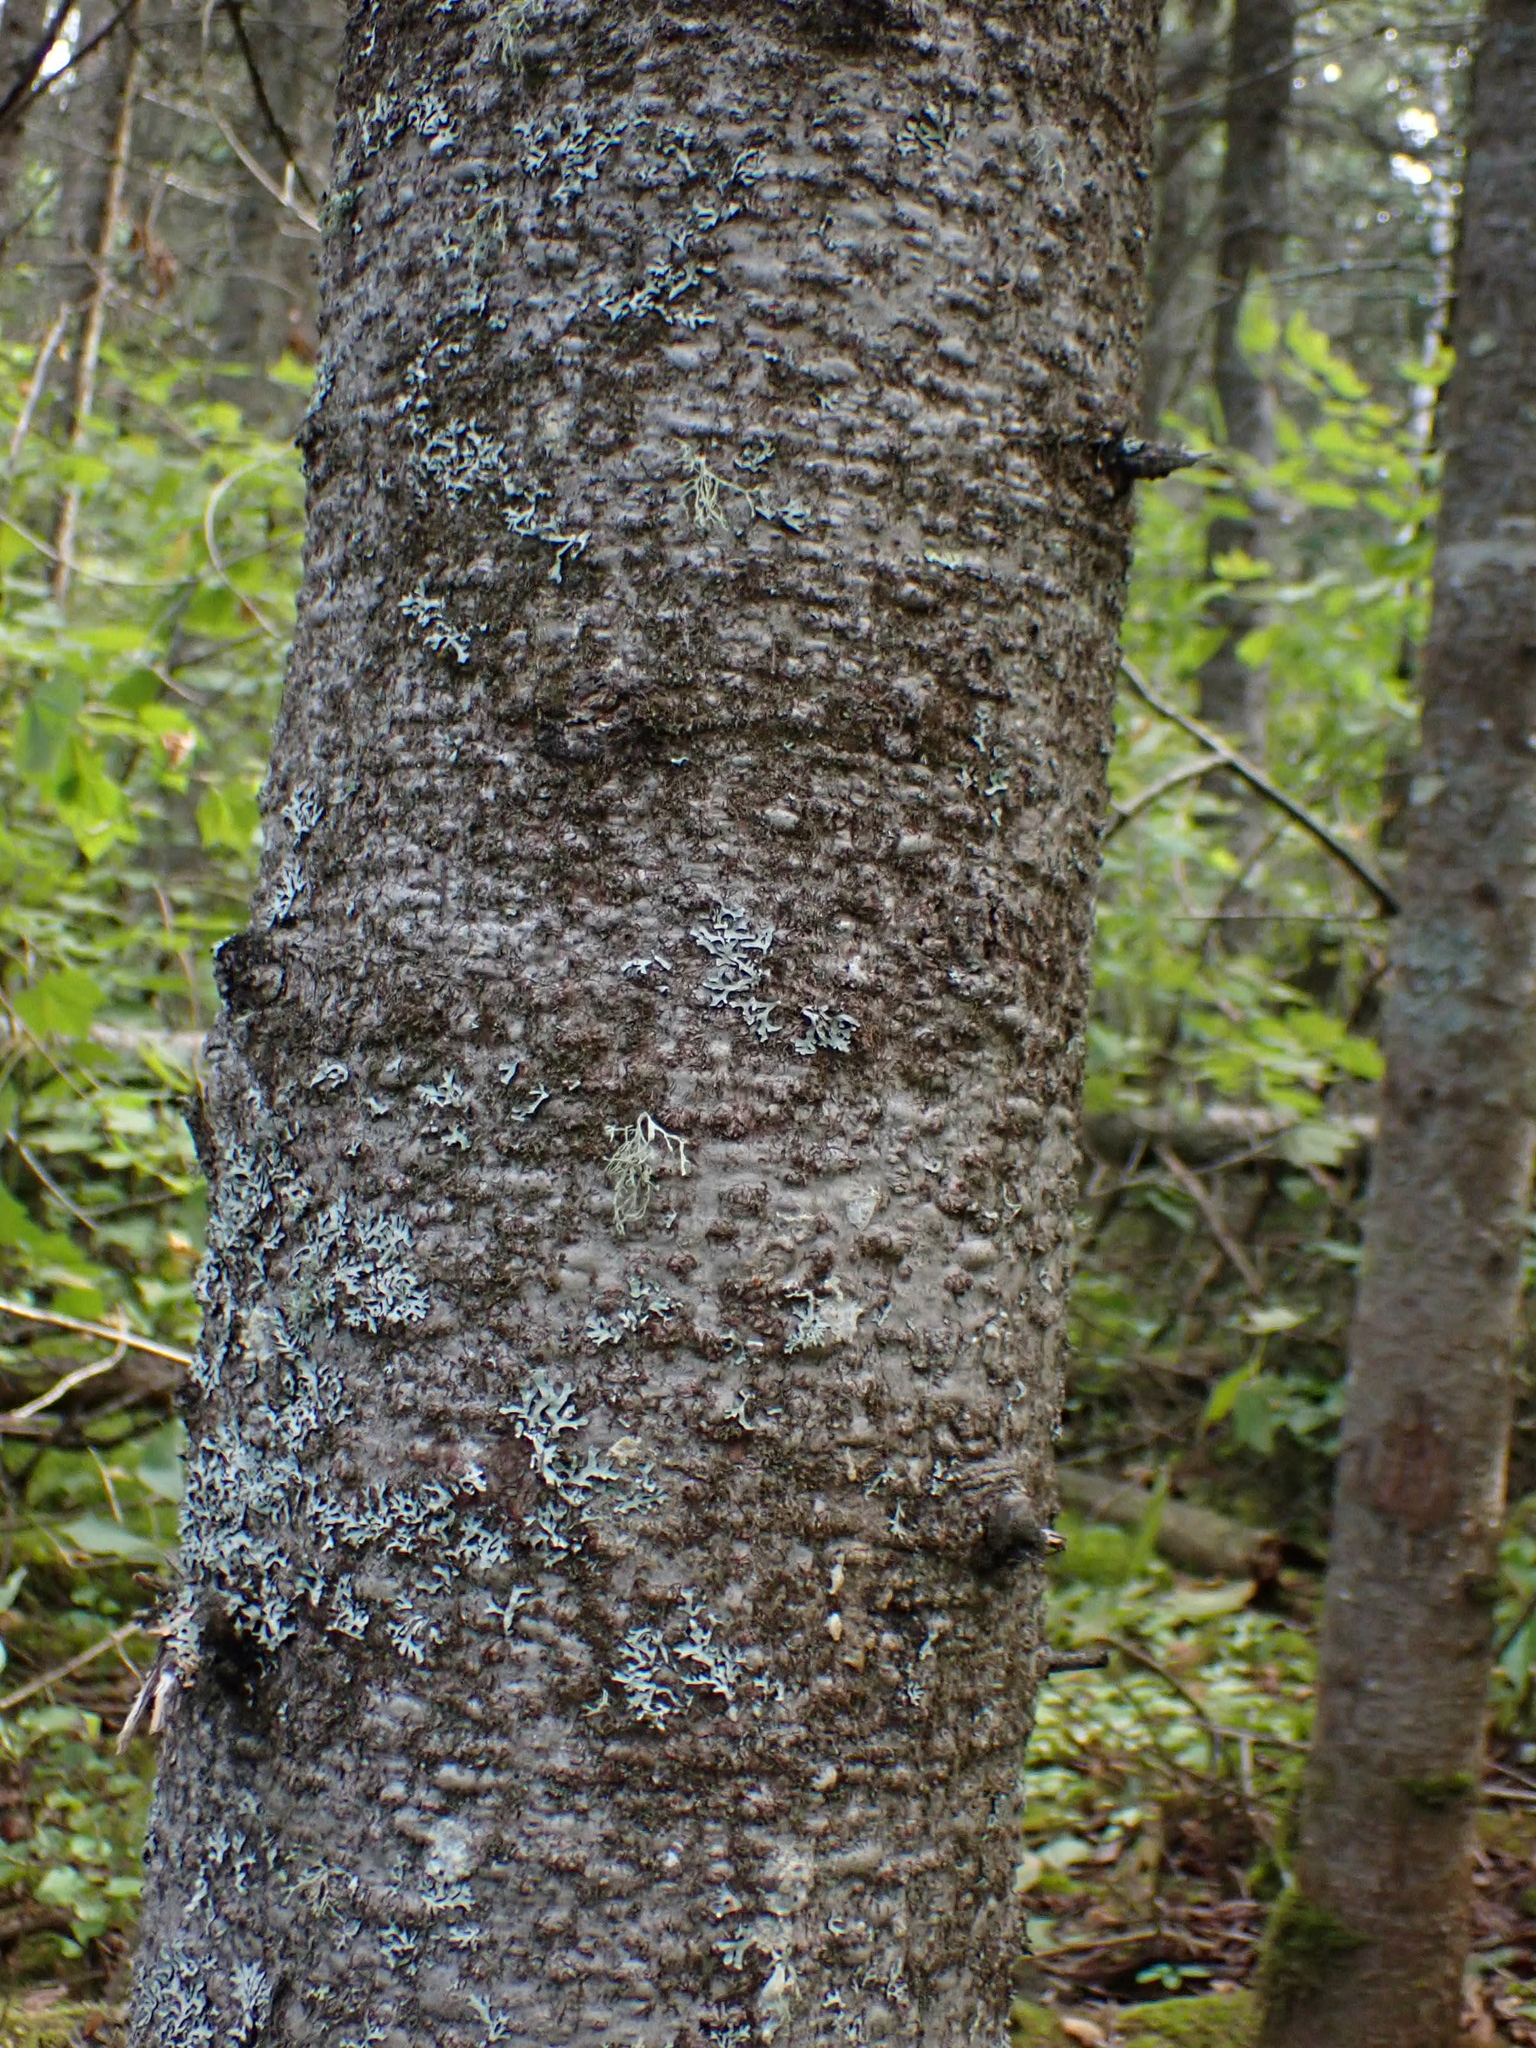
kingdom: Plantae
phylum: Tracheophyta
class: Pinopsida
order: Pinales
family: Pinaceae
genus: Abies
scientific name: Abies balsamea
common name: Balsam fir
